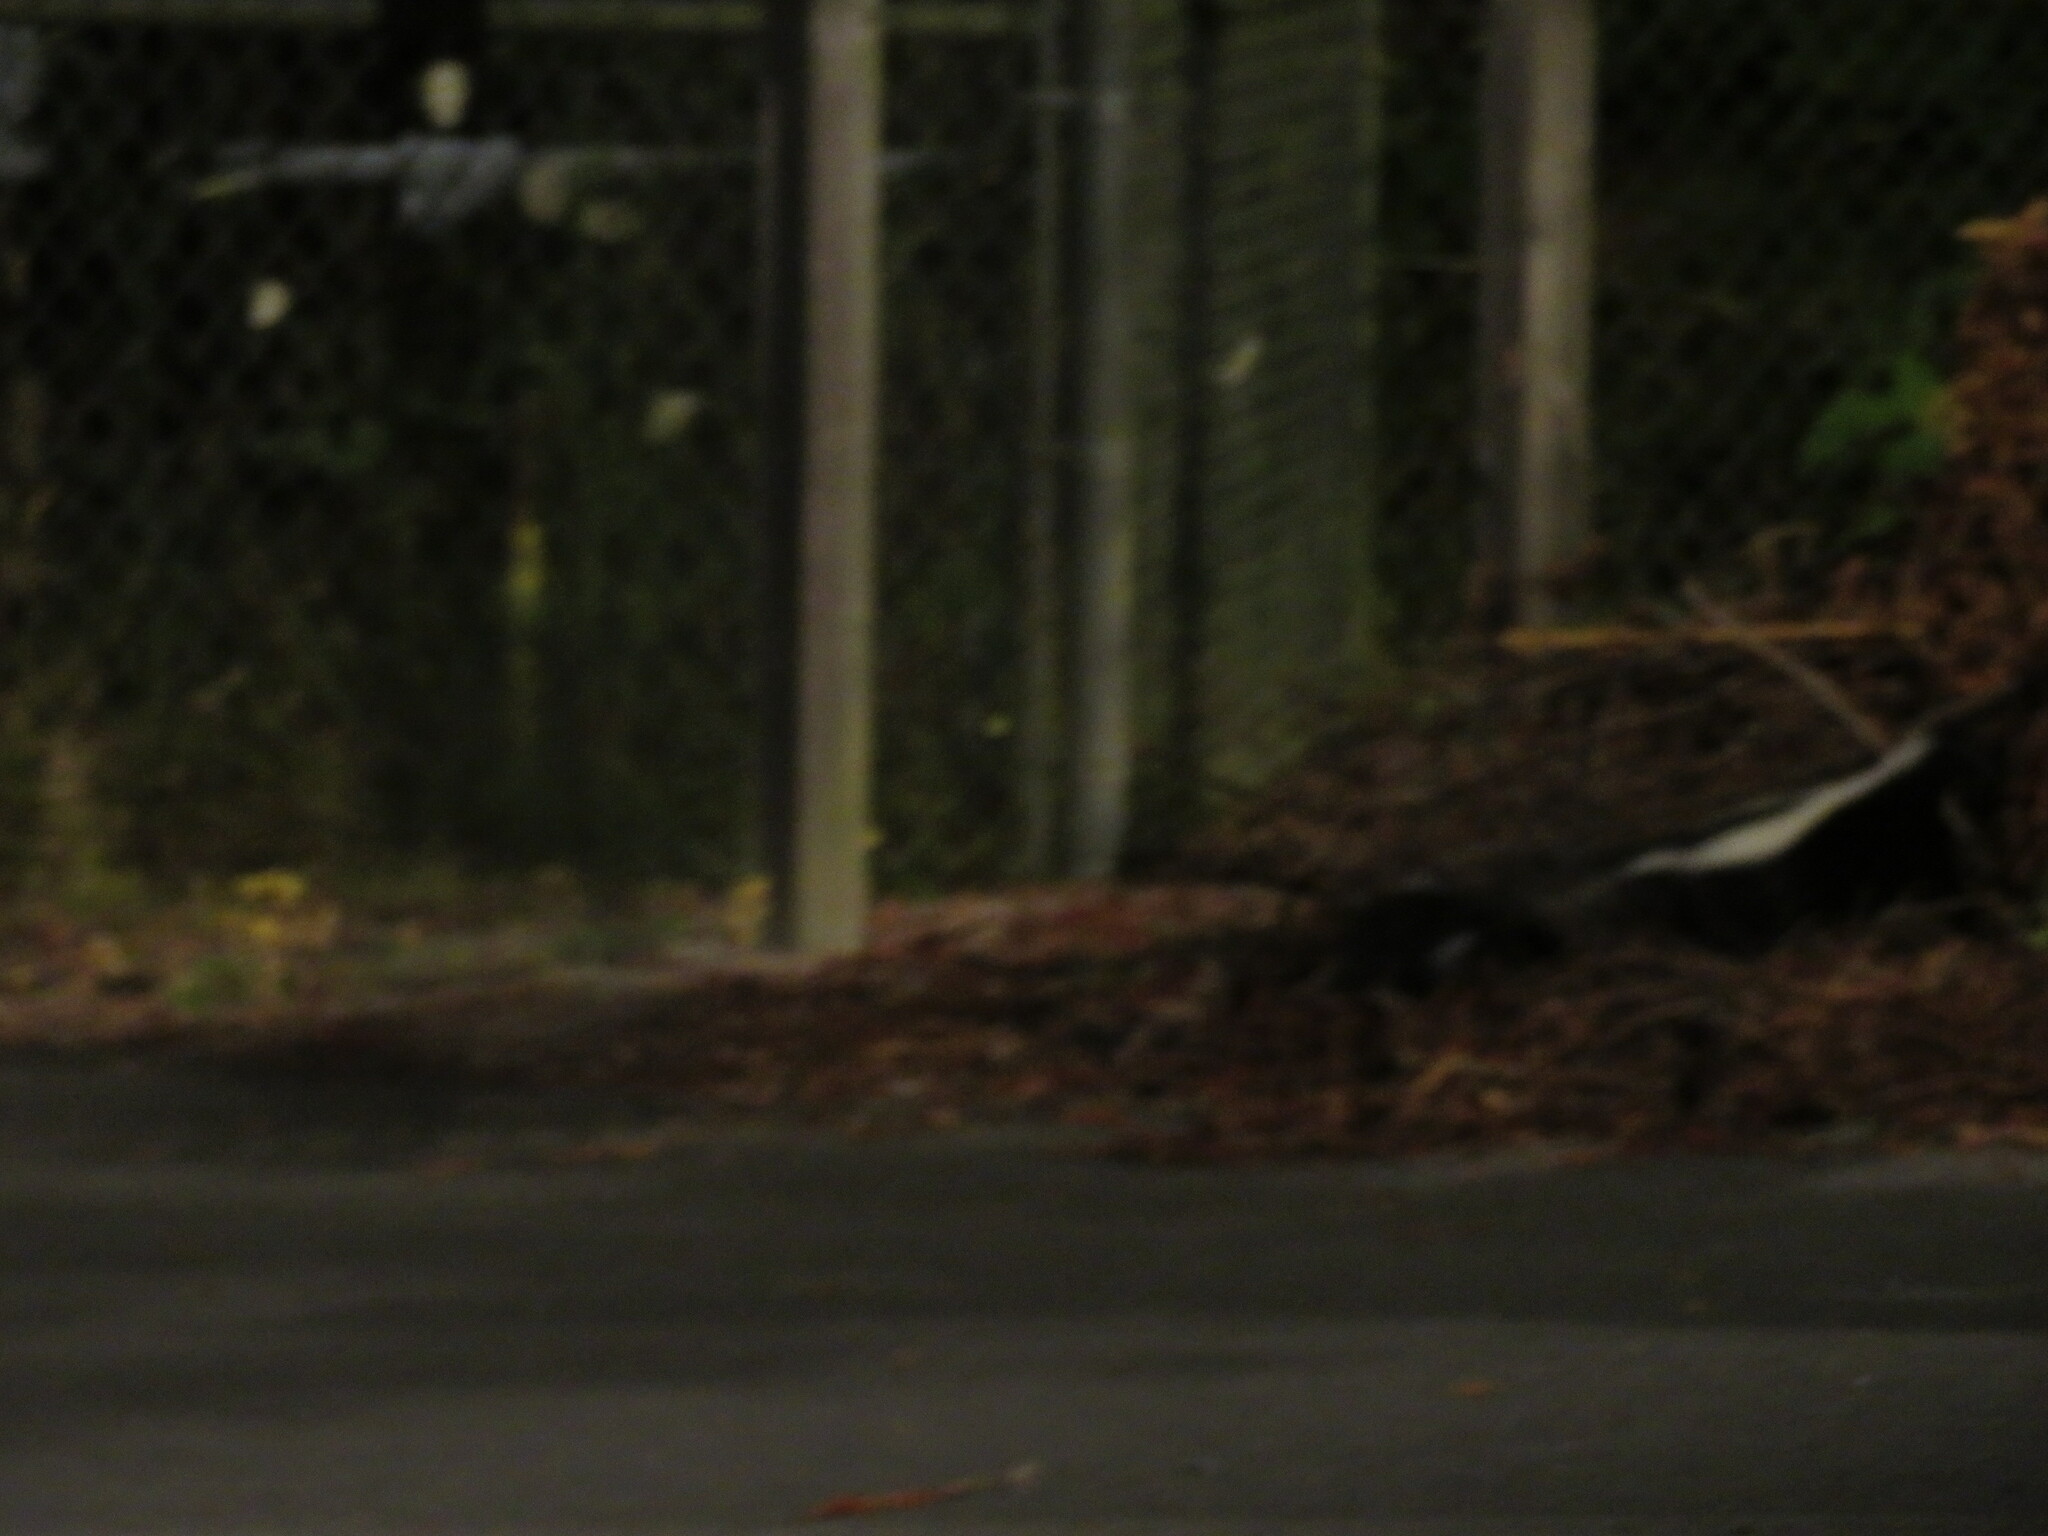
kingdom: Animalia
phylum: Chordata
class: Mammalia
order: Carnivora
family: Mephitidae
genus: Mephitis
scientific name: Mephitis mephitis
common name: Striped skunk
